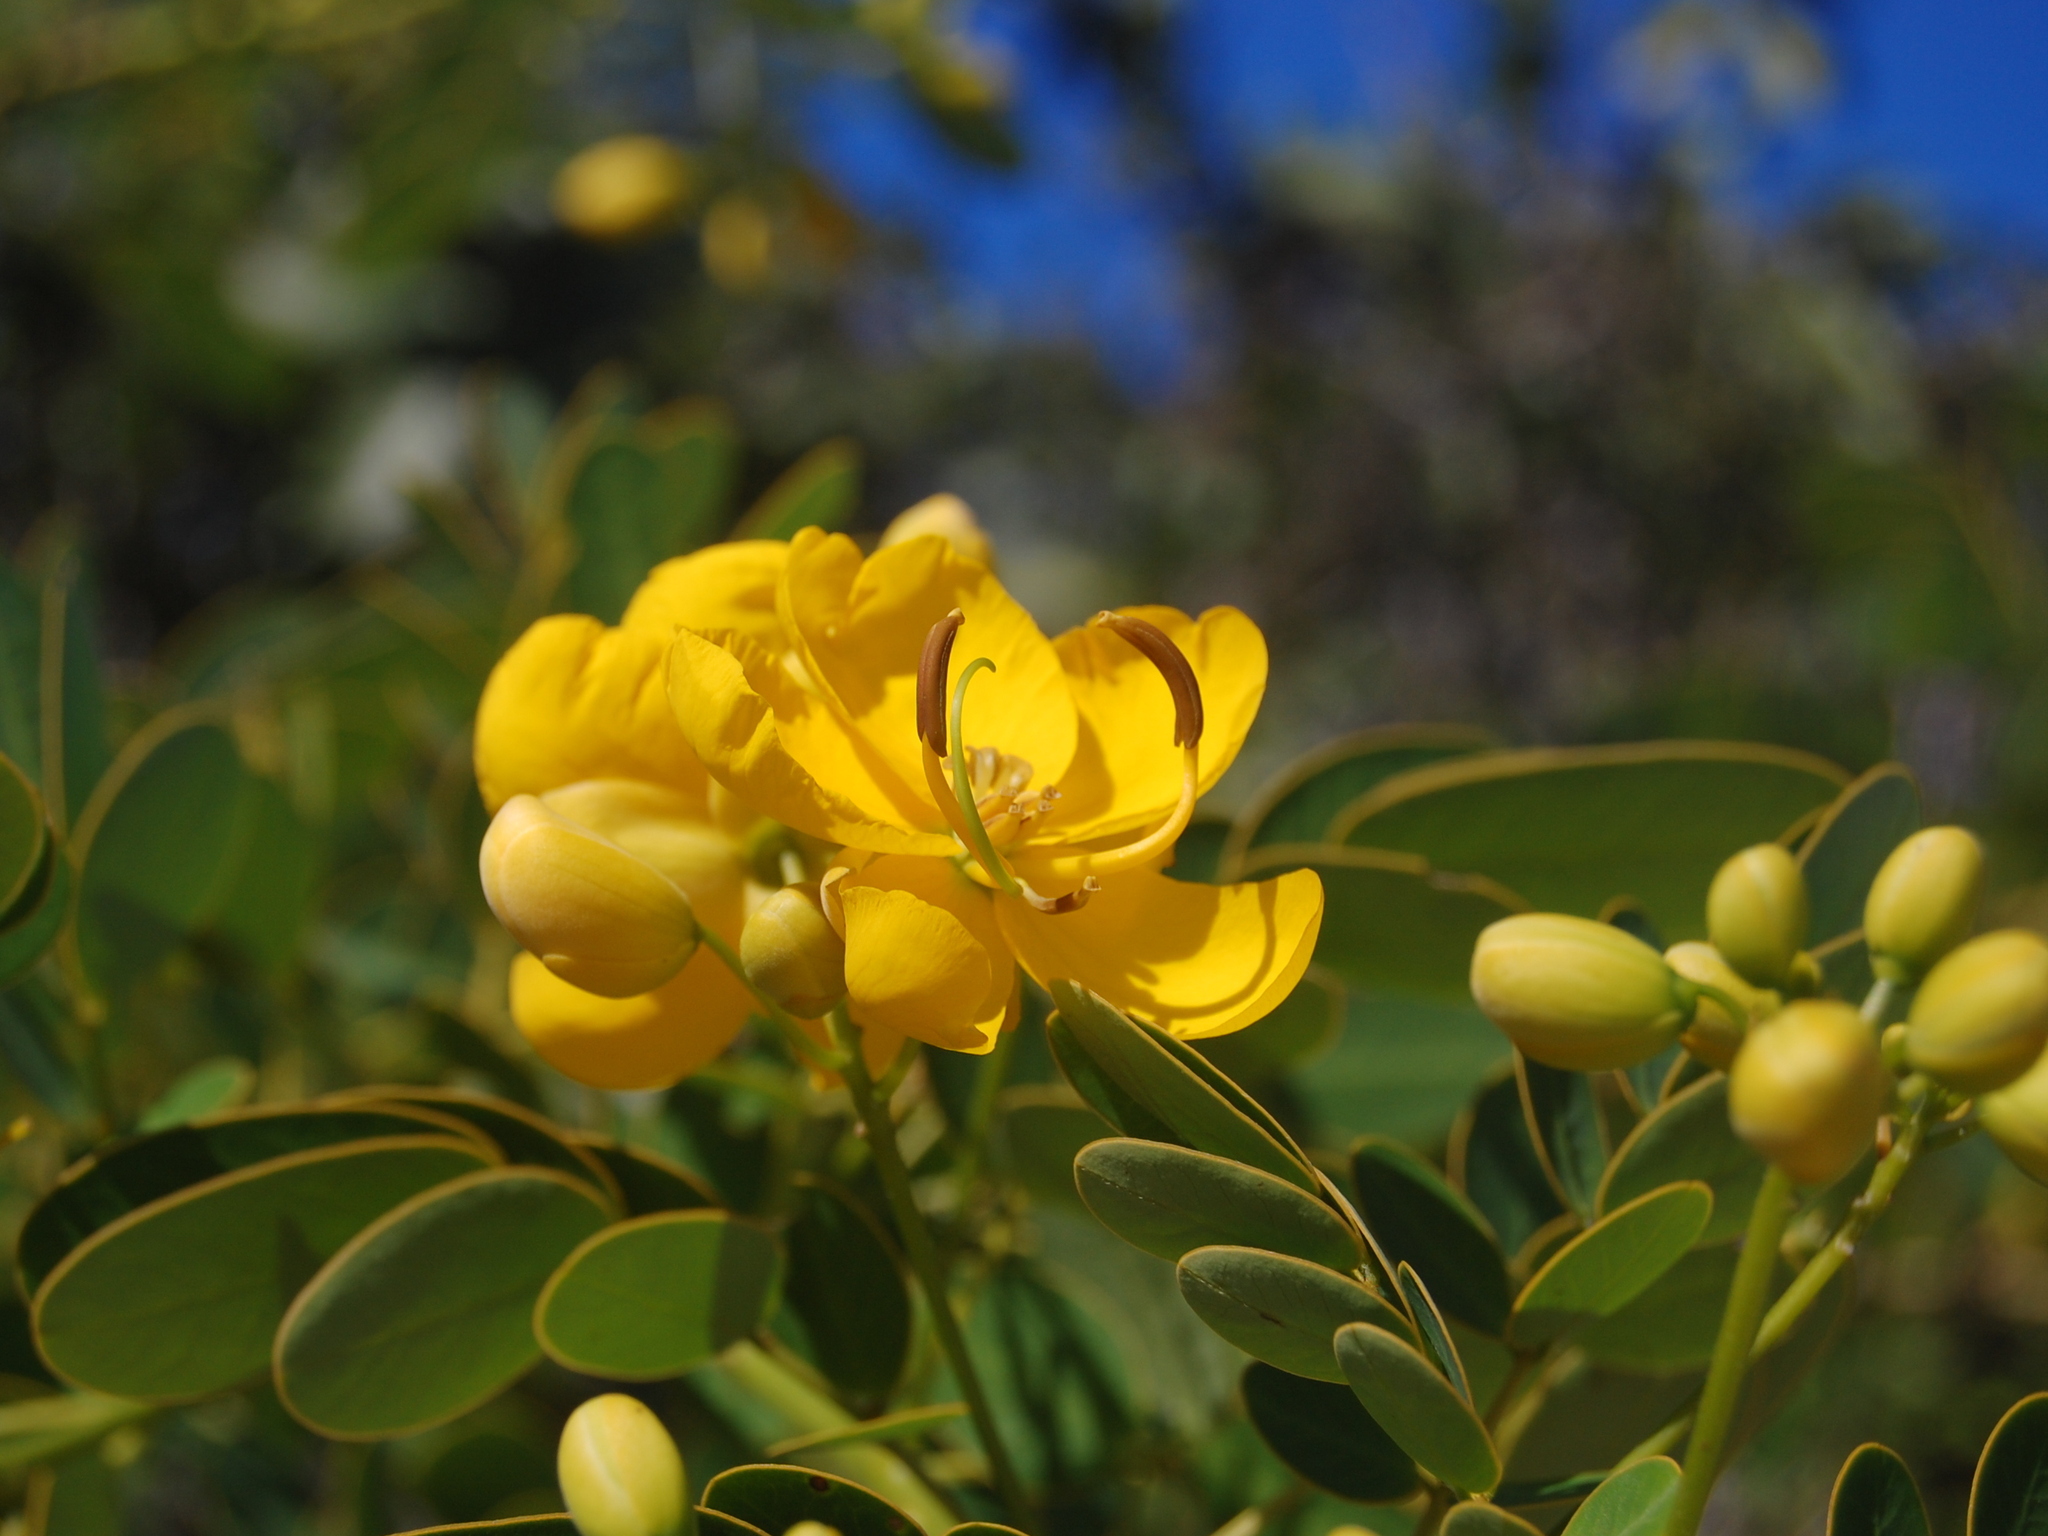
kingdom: Plantae
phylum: Tracheophyta
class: Magnoliopsida
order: Fabales
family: Fabaceae
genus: Senna
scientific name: Senna bicapsularis
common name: Christmasbush
